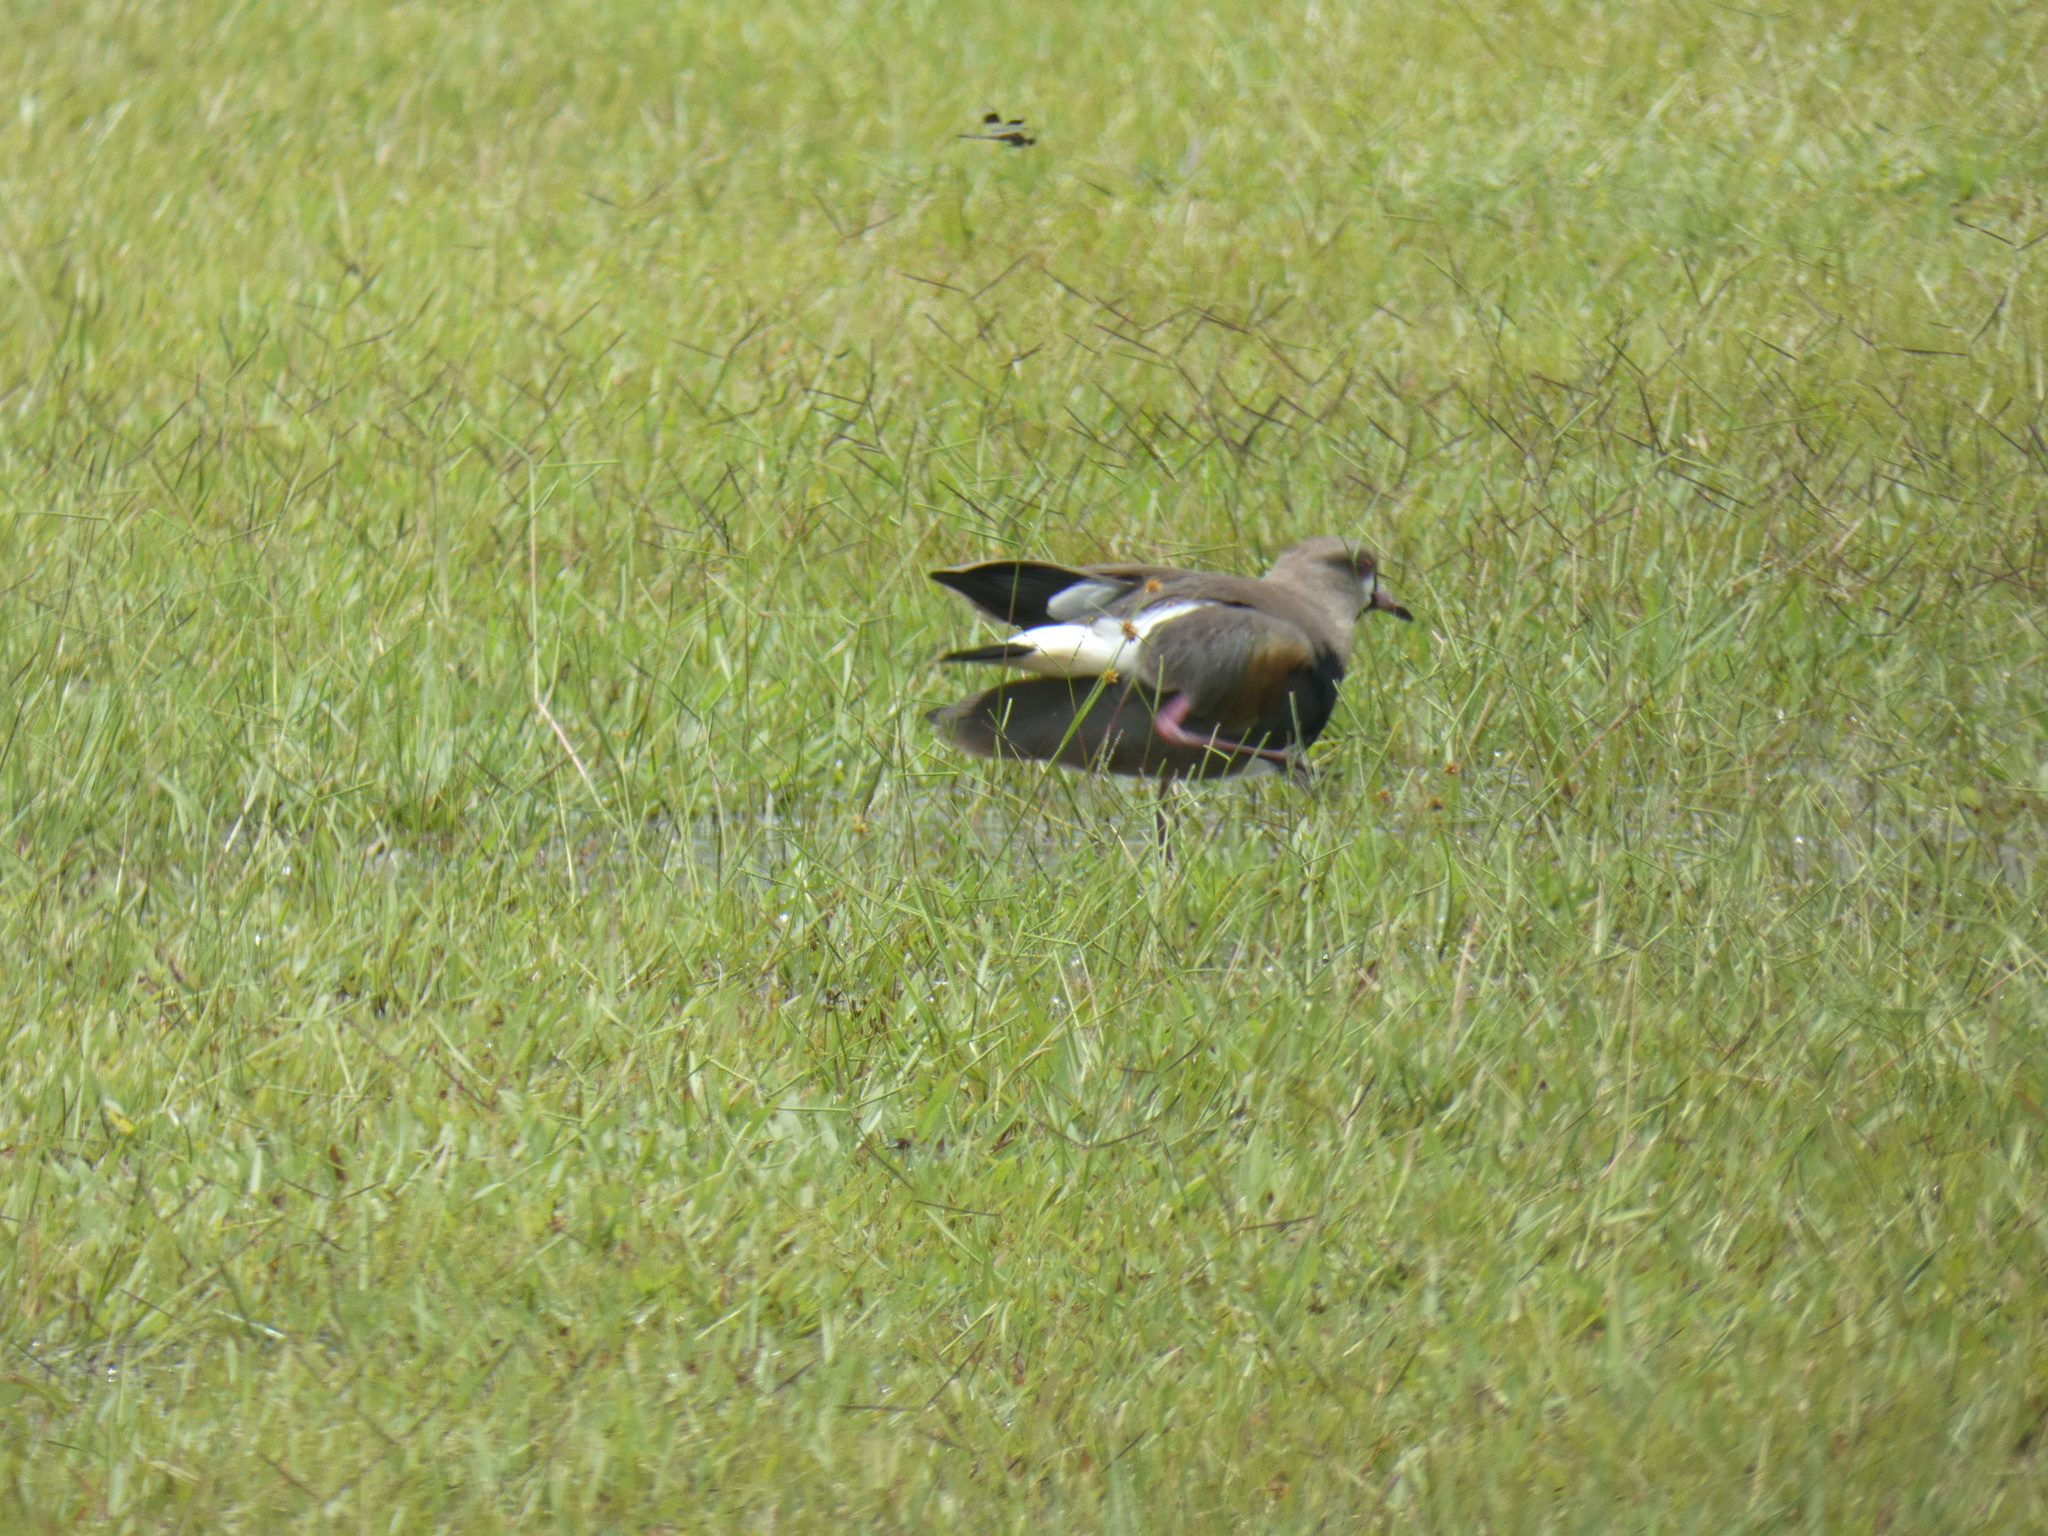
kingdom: Animalia
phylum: Chordata
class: Aves
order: Charadriiformes
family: Charadriidae
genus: Vanellus
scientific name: Vanellus chilensis
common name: Southern lapwing
